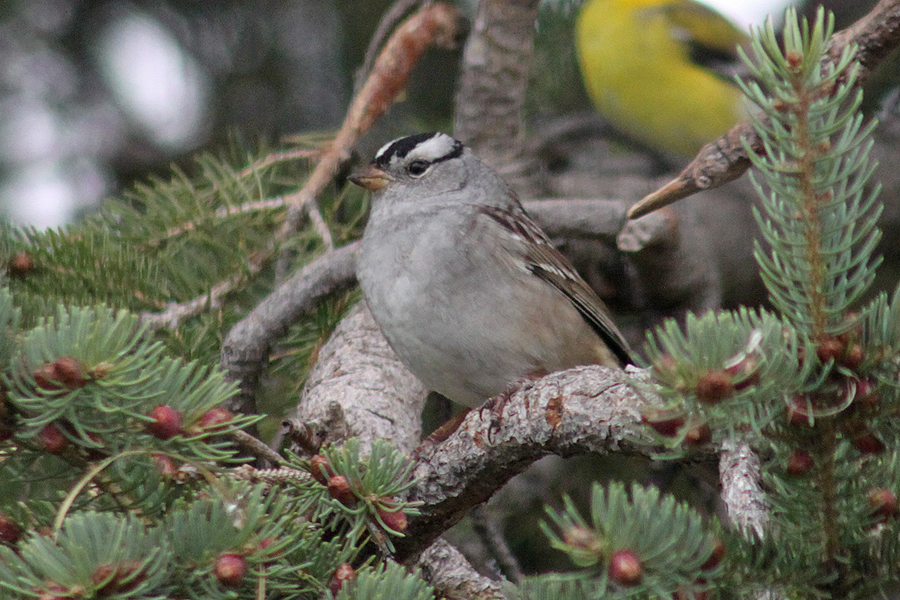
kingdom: Animalia
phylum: Chordata
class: Aves
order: Passeriformes
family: Passerellidae
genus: Zonotrichia
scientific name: Zonotrichia leucophrys
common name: White-crowned sparrow
